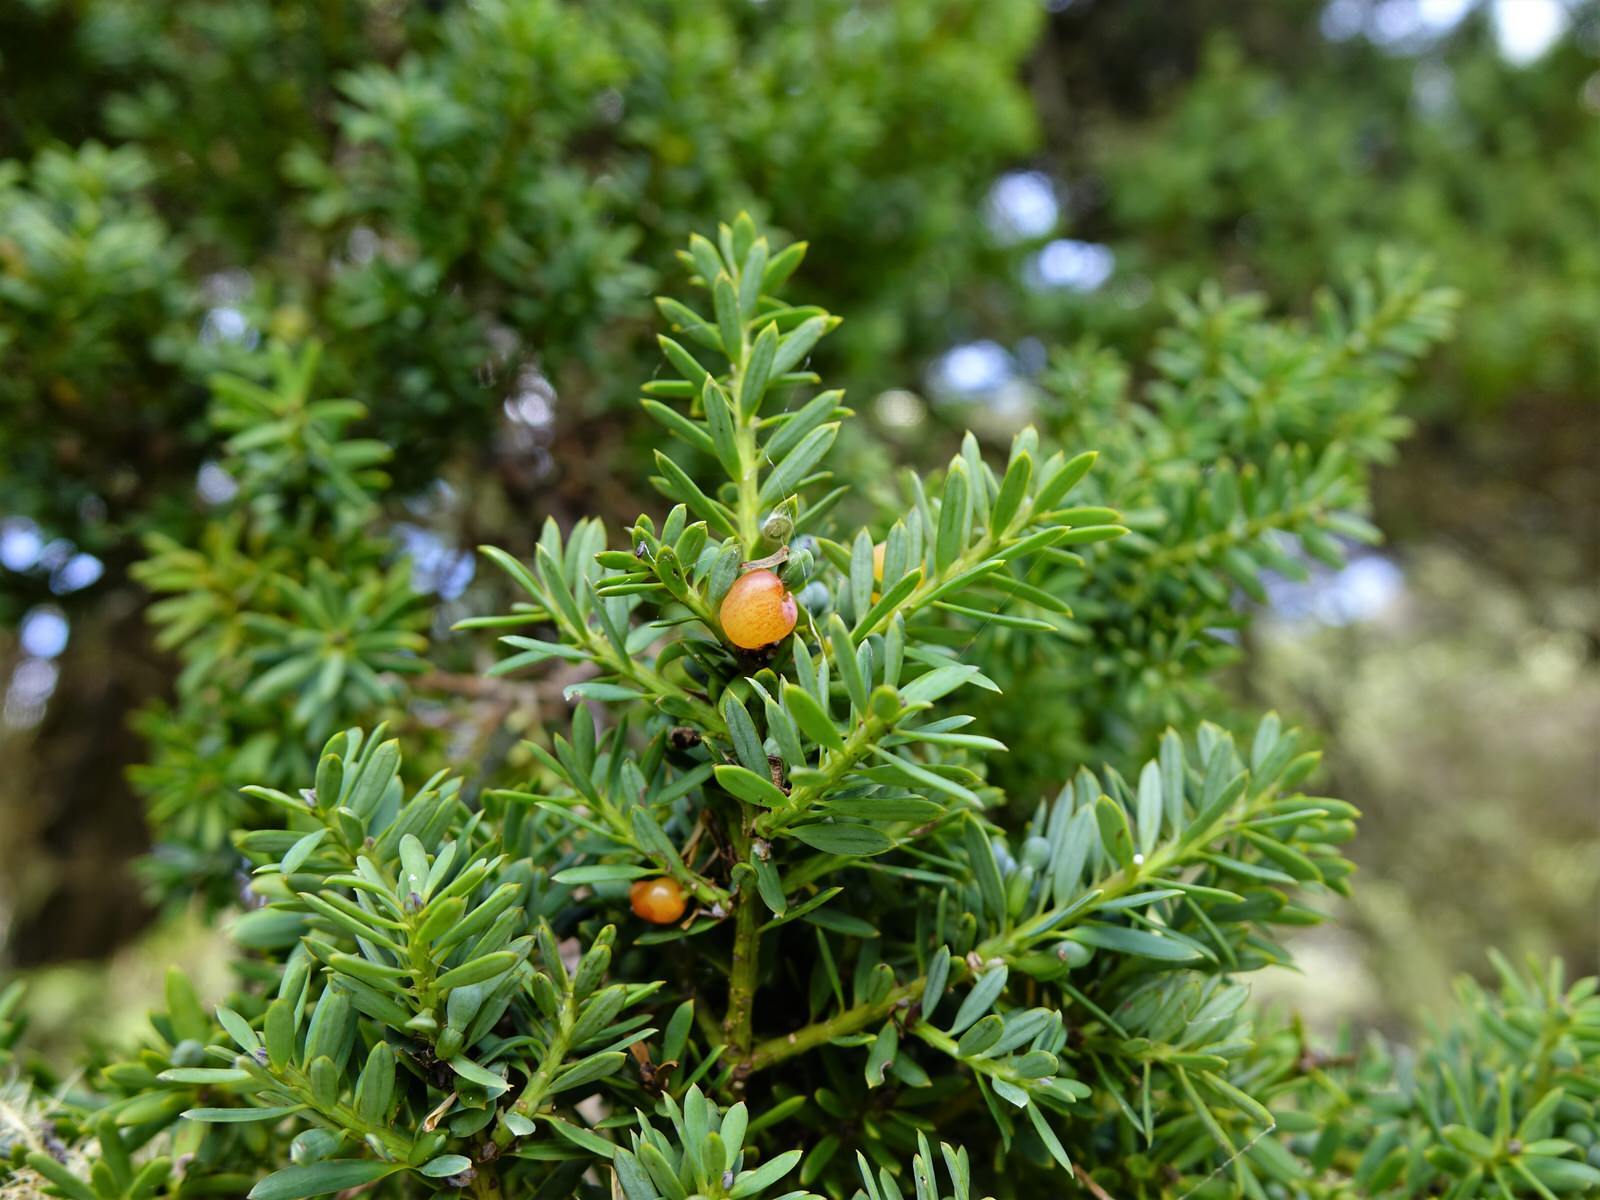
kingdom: Plantae
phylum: Tracheophyta
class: Pinopsida
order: Pinales
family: Podocarpaceae
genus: Podocarpus
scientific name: Podocarpus totara
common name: Totara
